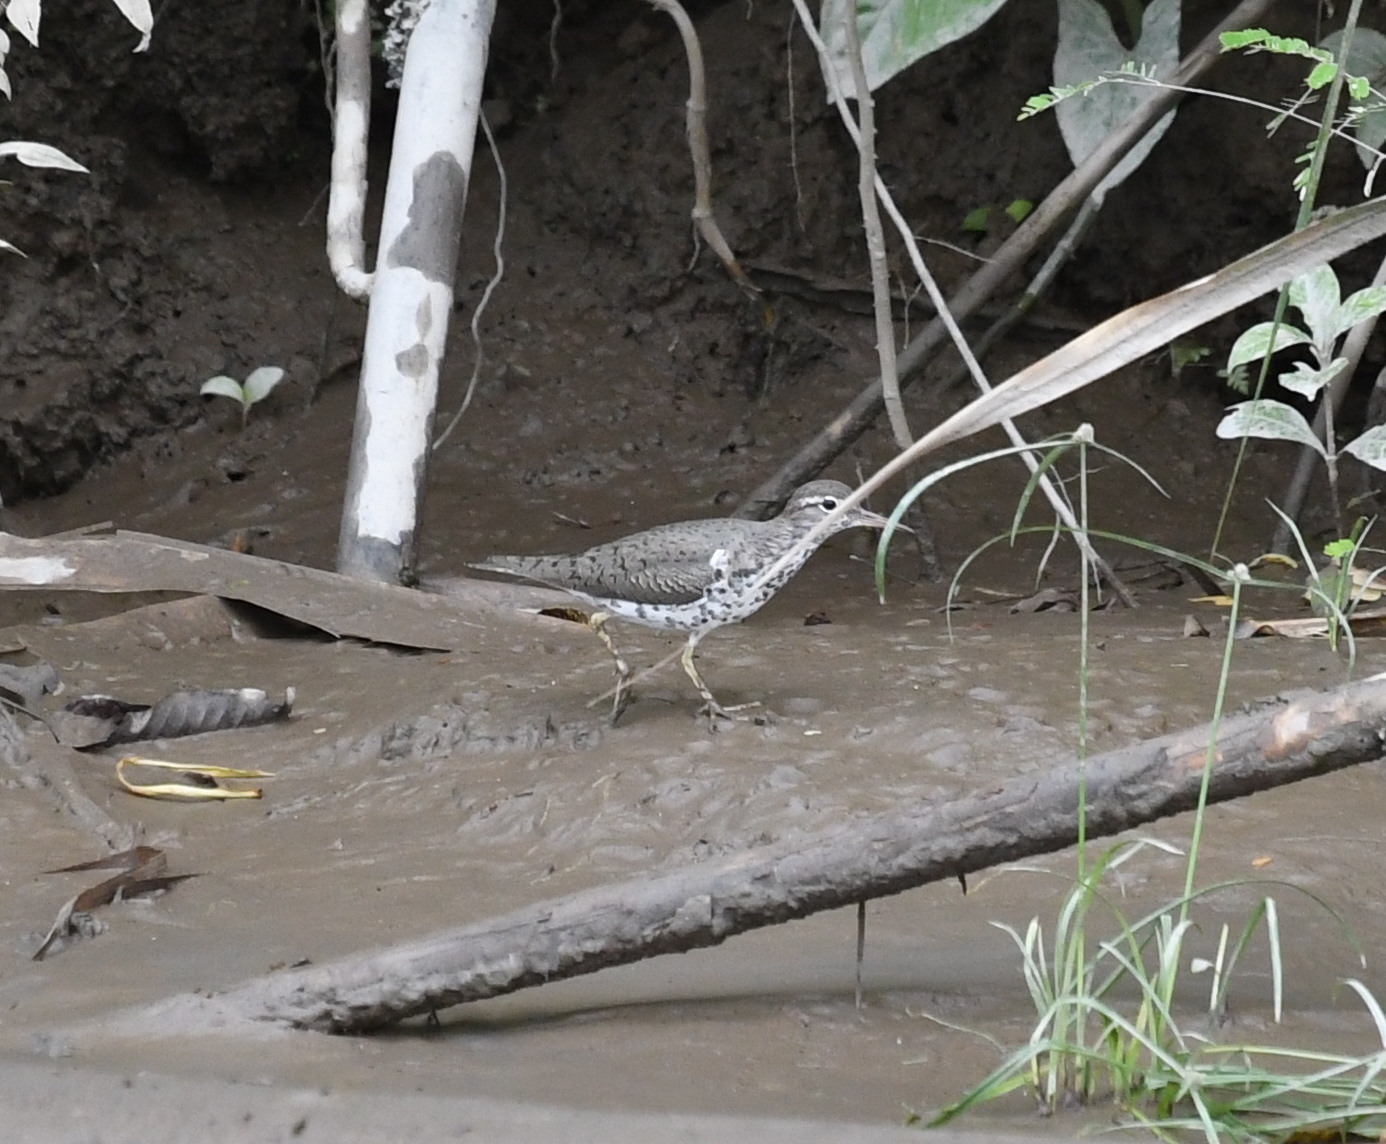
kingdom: Animalia
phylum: Chordata
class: Aves
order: Charadriiformes
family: Scolopacidae
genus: Actitis
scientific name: Actitis macularius
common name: Spotted sandpiper
